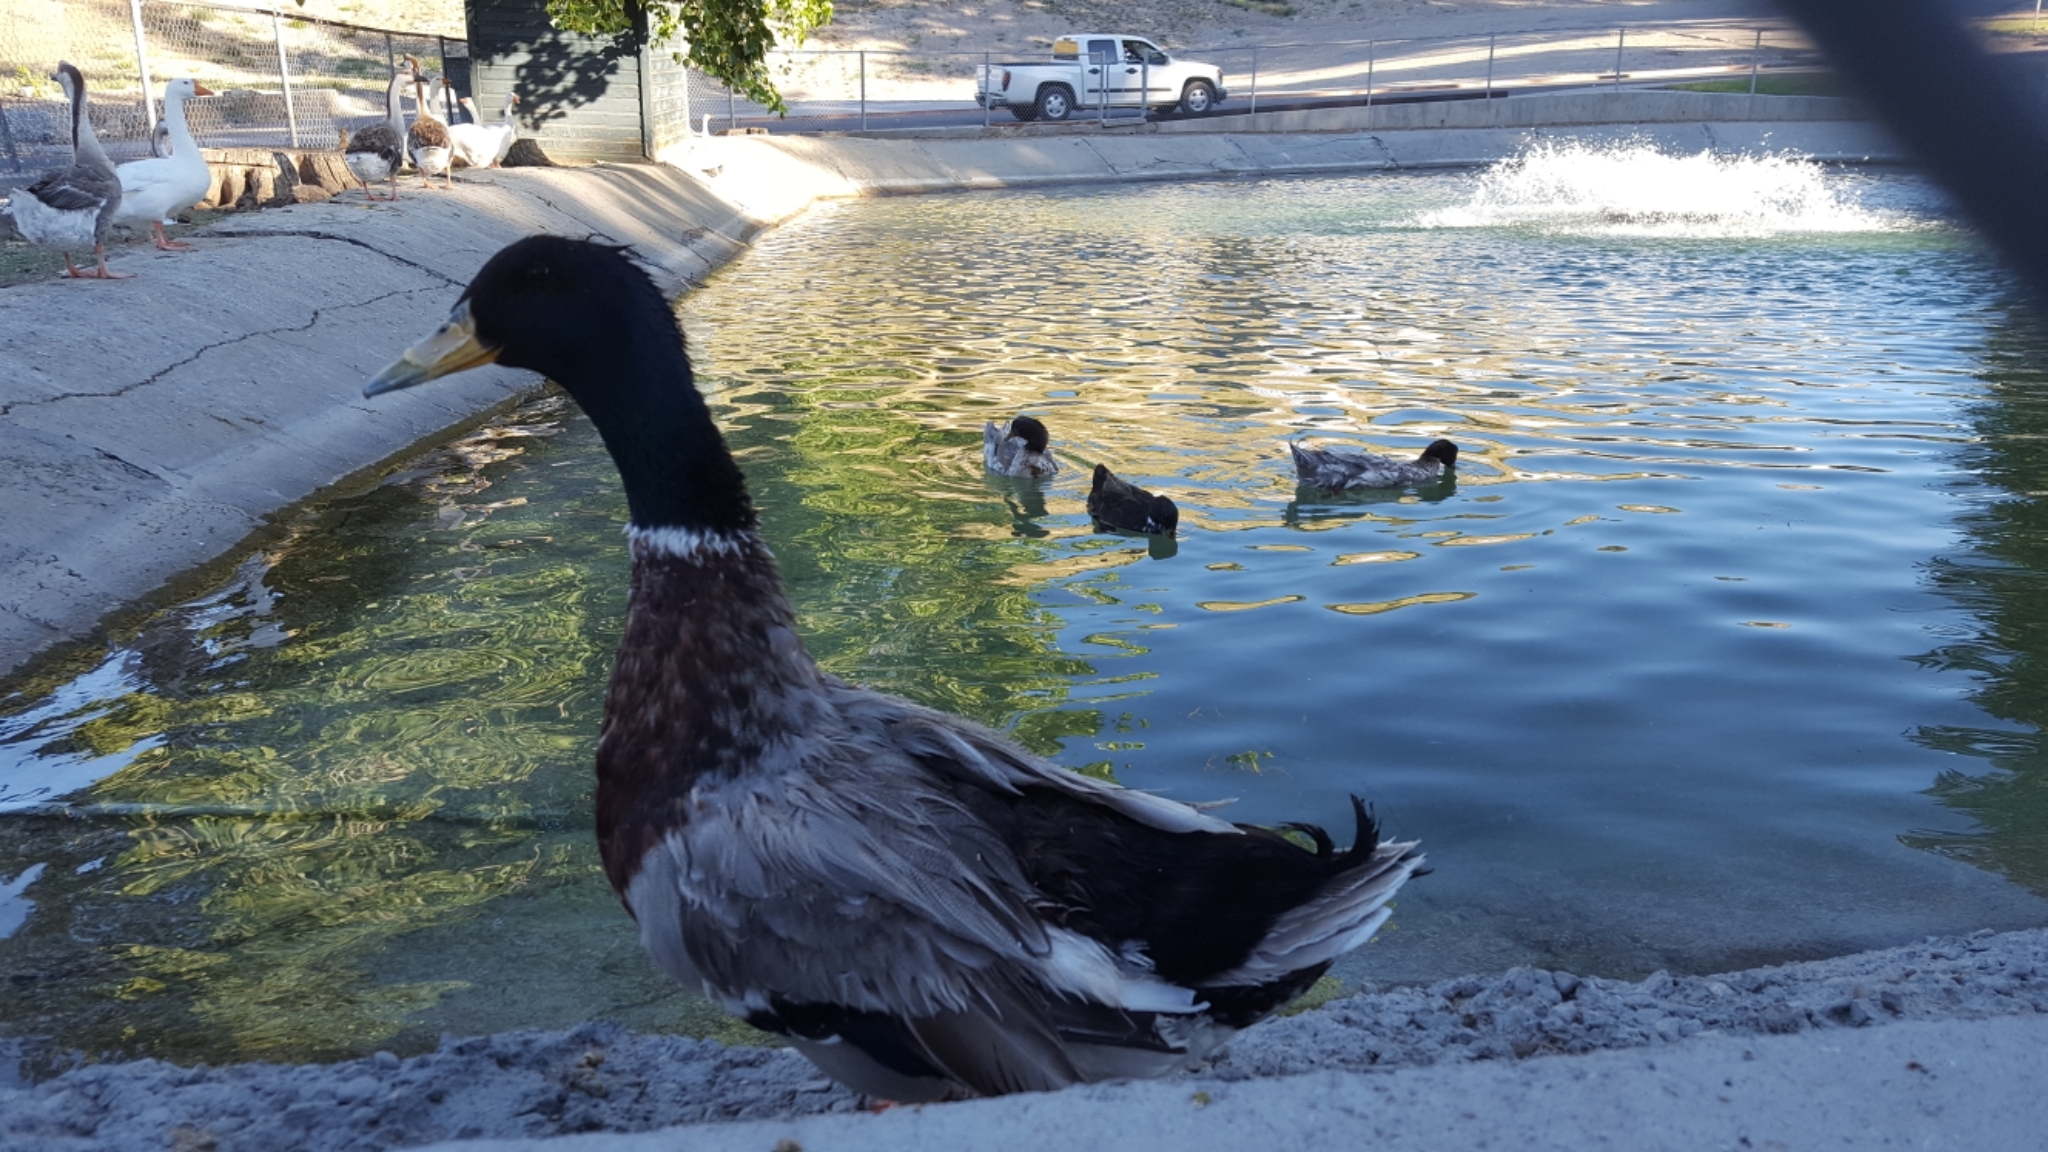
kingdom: Animalia
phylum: Chordata
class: Aves
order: Anseriformes
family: Anatidae
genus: Anas
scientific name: Anas platyrhynchos
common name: Mallard
